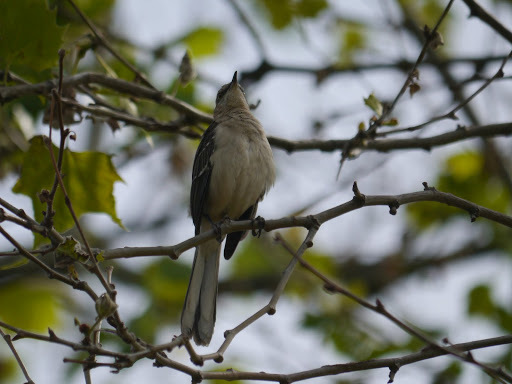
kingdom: Animalia
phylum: Chordata
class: Aves
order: Passeriformes
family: Mimidae
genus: Mimus
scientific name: Mimus polyglottos
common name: Northern mockingbird
